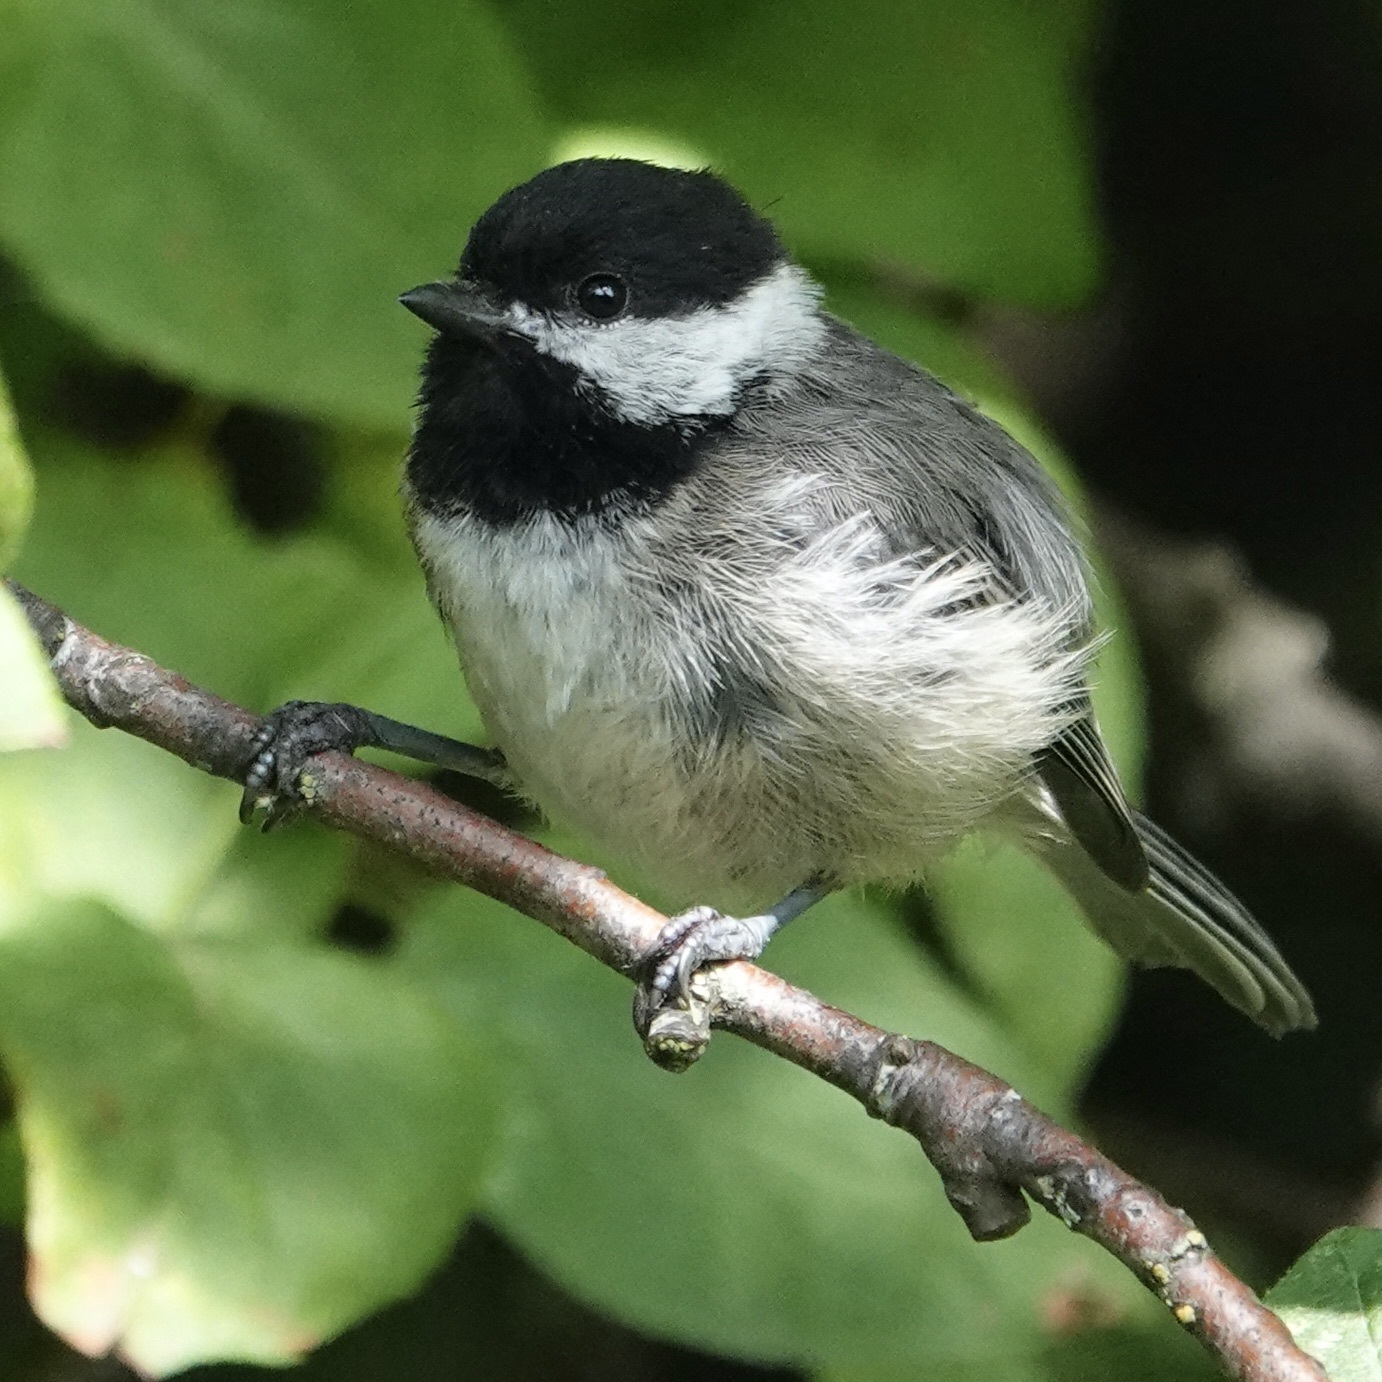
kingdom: Animalia
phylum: Chordata
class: Aves
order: Passeriformes
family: Paridae
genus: Poecile
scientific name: Poecile atricapillus
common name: Black-capped chickadee
